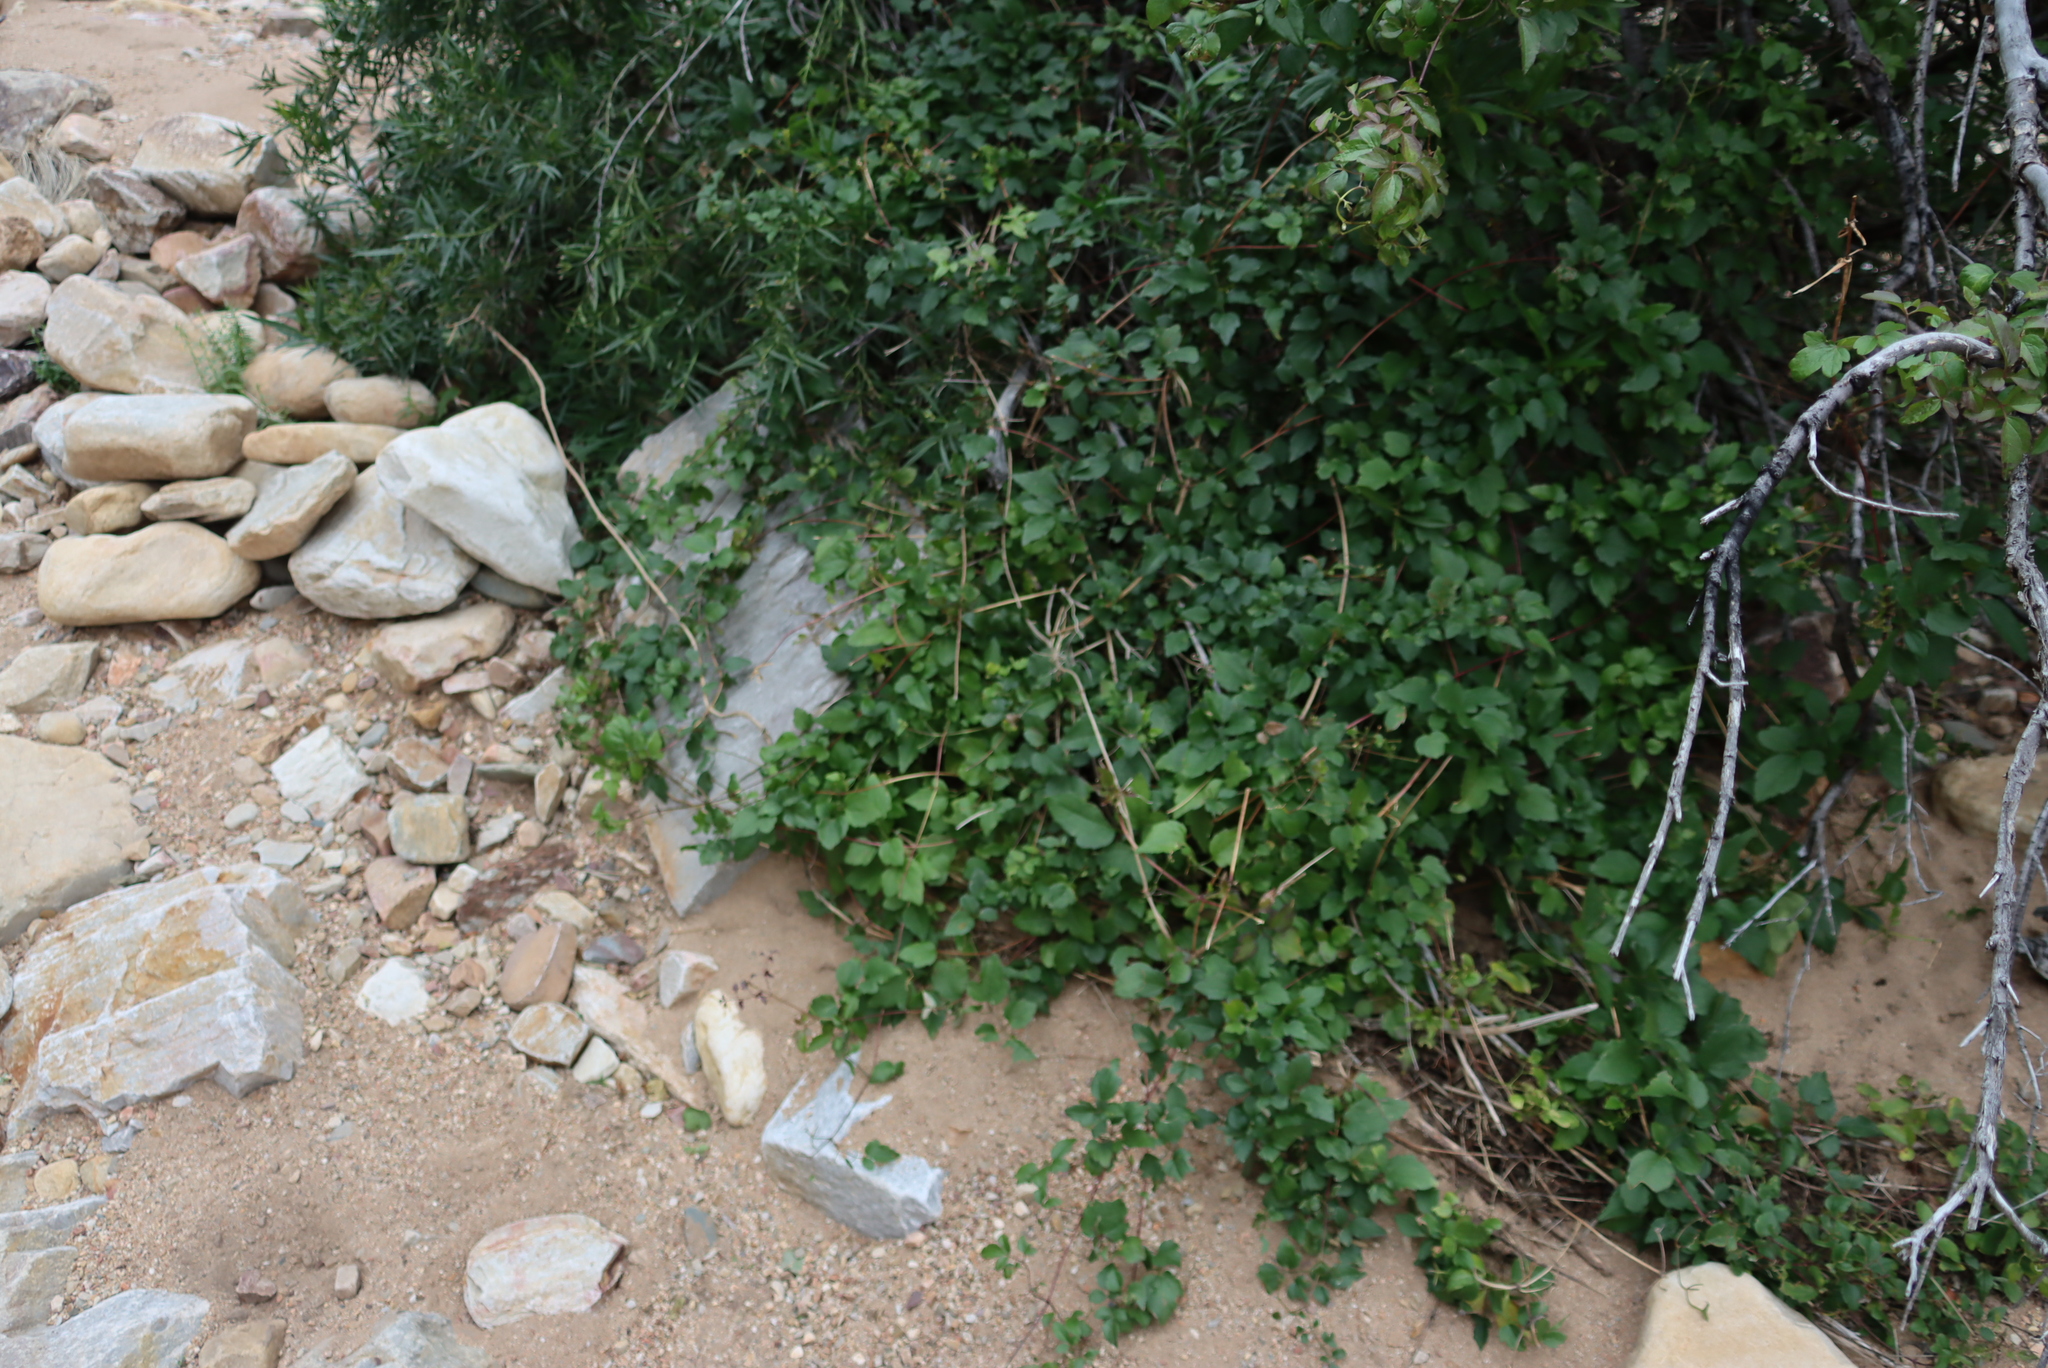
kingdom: Plantae
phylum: Tracheophyta
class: Magnoliopsida
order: Ranunculales
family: Ranunculaceae
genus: Clematis
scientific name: Clematis brachiata
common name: Traveler's-joy
